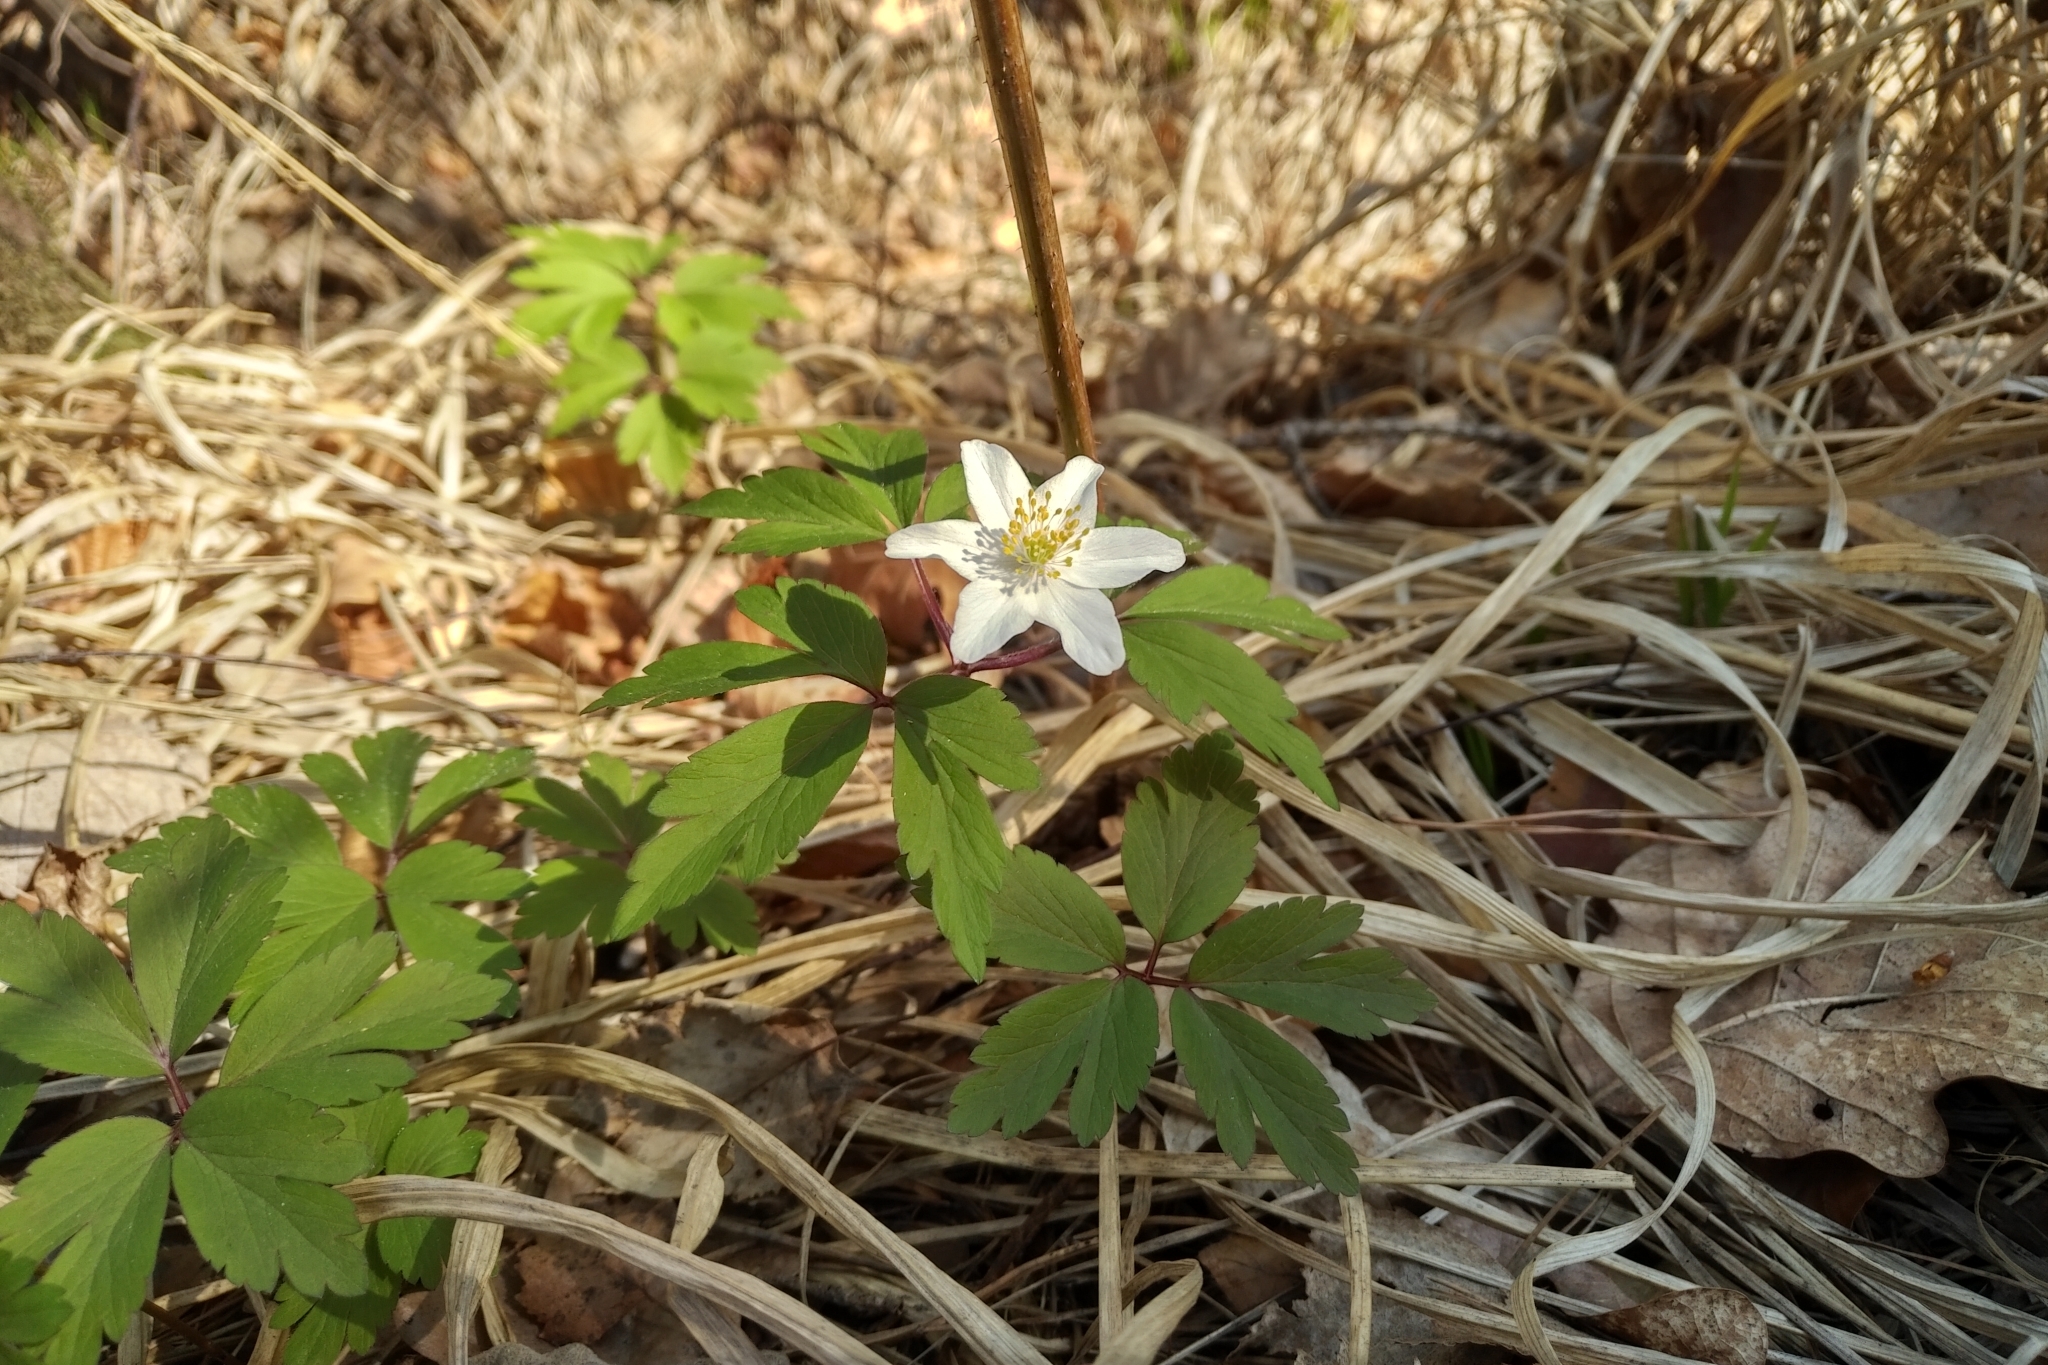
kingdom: Plantae
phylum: Tracheophyta
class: Magnoliopsida
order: Ranunculales
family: Ranunculaceae
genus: Anemone
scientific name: Anemone nemorosa
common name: Wood anemone
